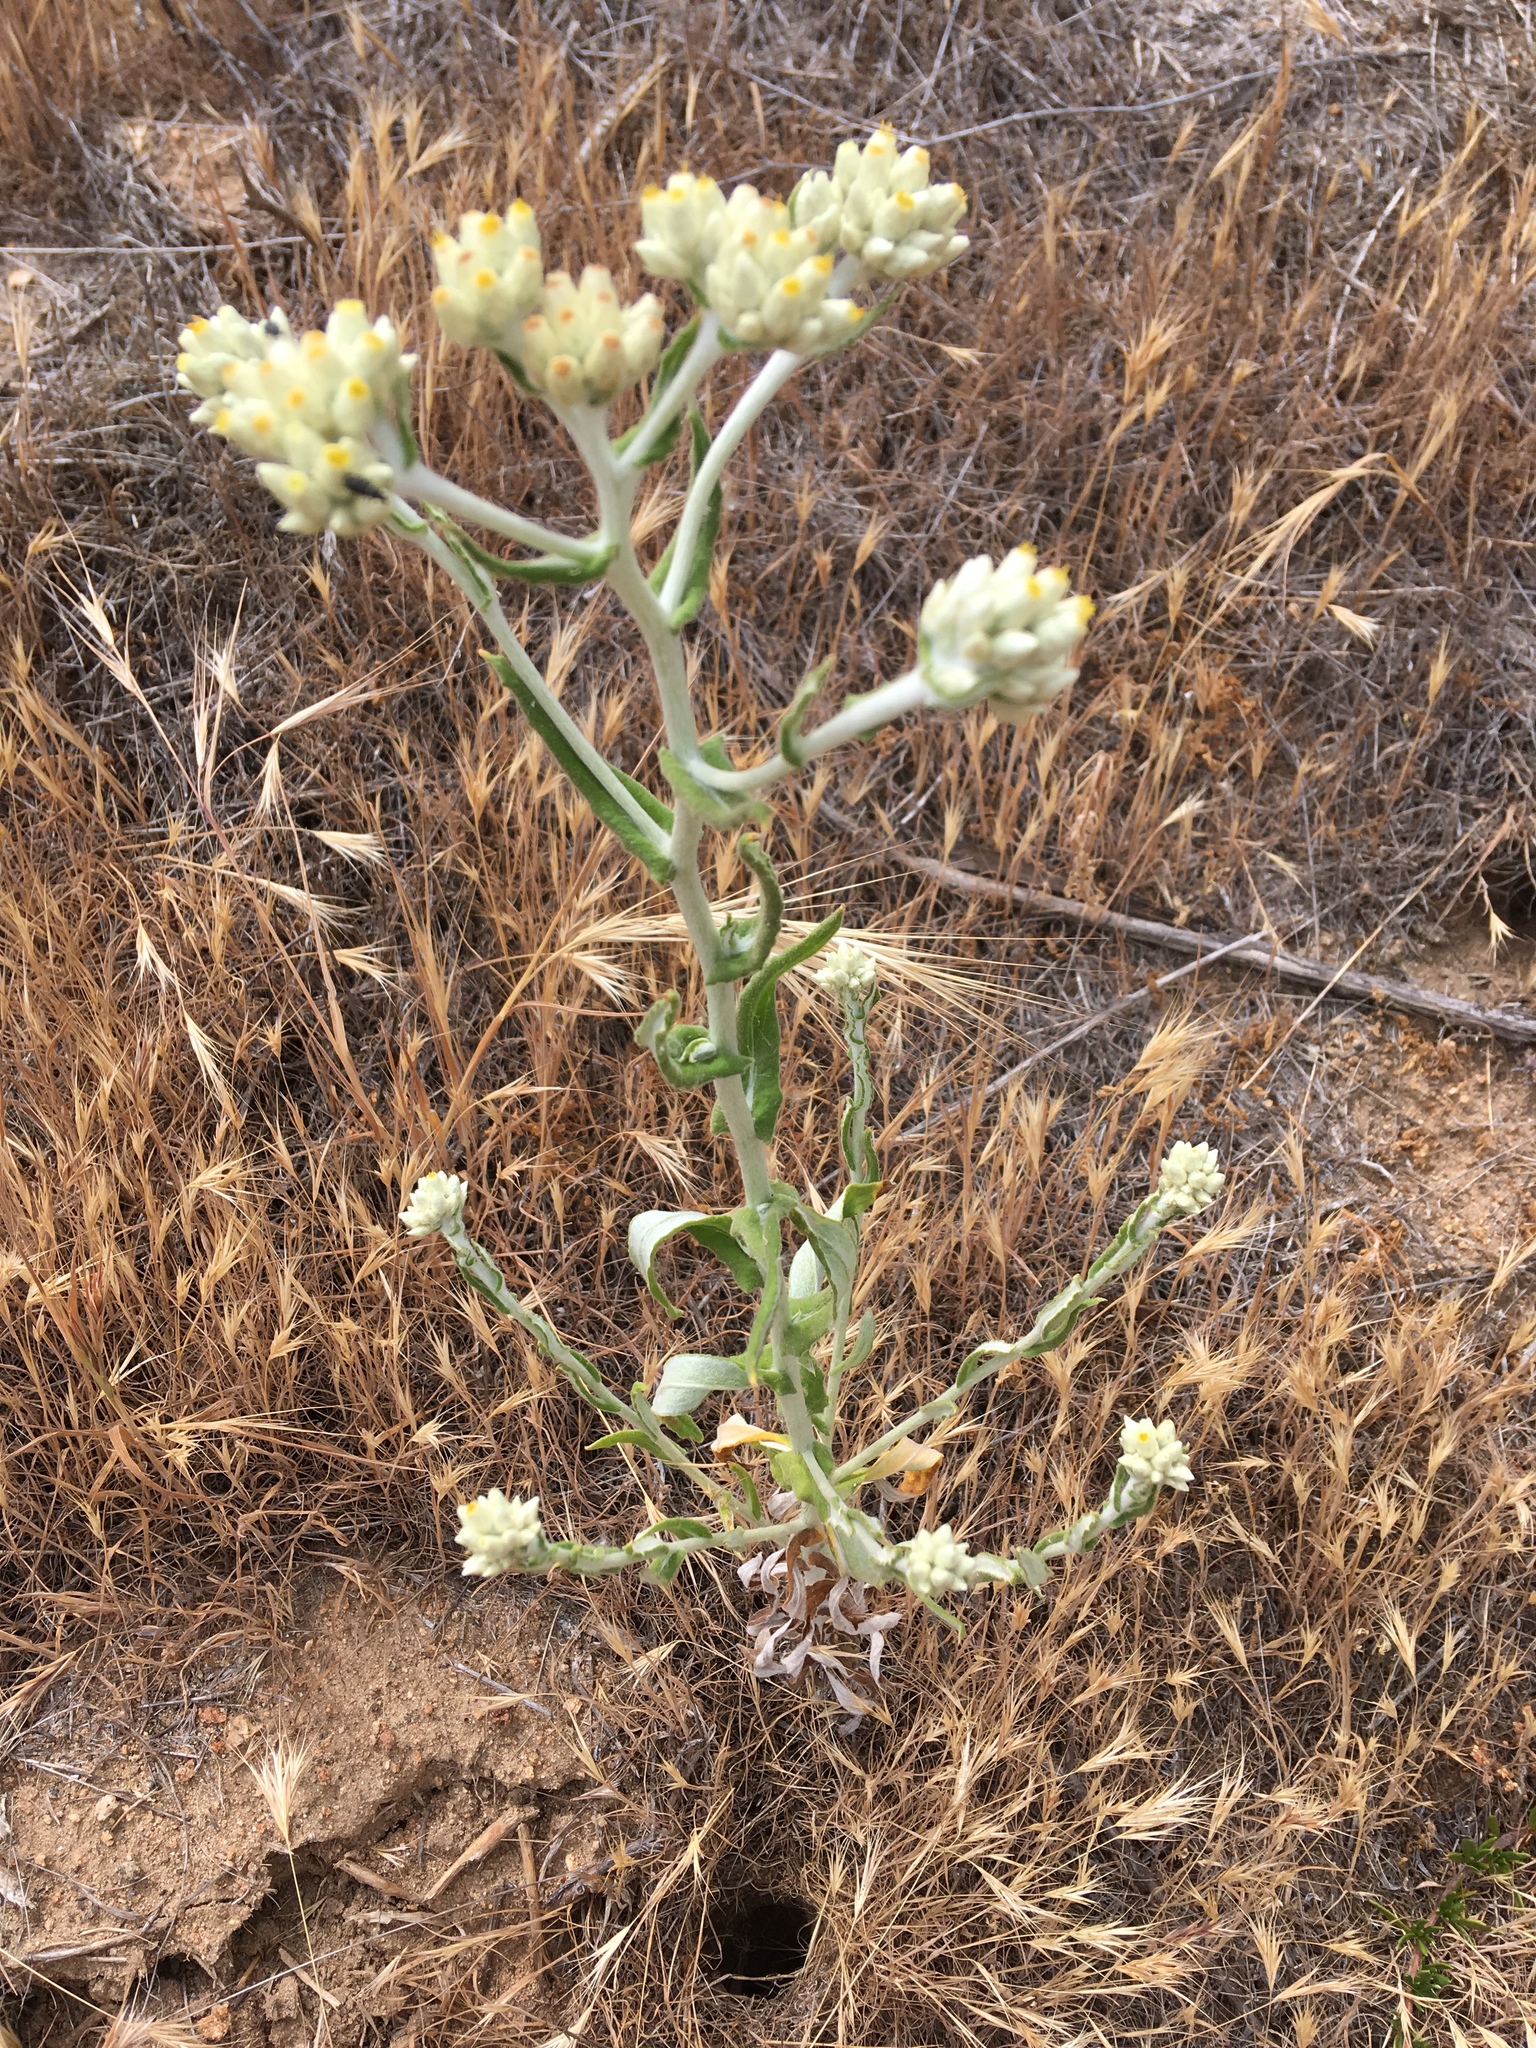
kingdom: Plantae
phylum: Tracheophyta
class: Magnoliopsida
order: Asterales
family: Asteraceae
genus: Pseudognaphalium
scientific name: Pseudognaphalium biolettii
